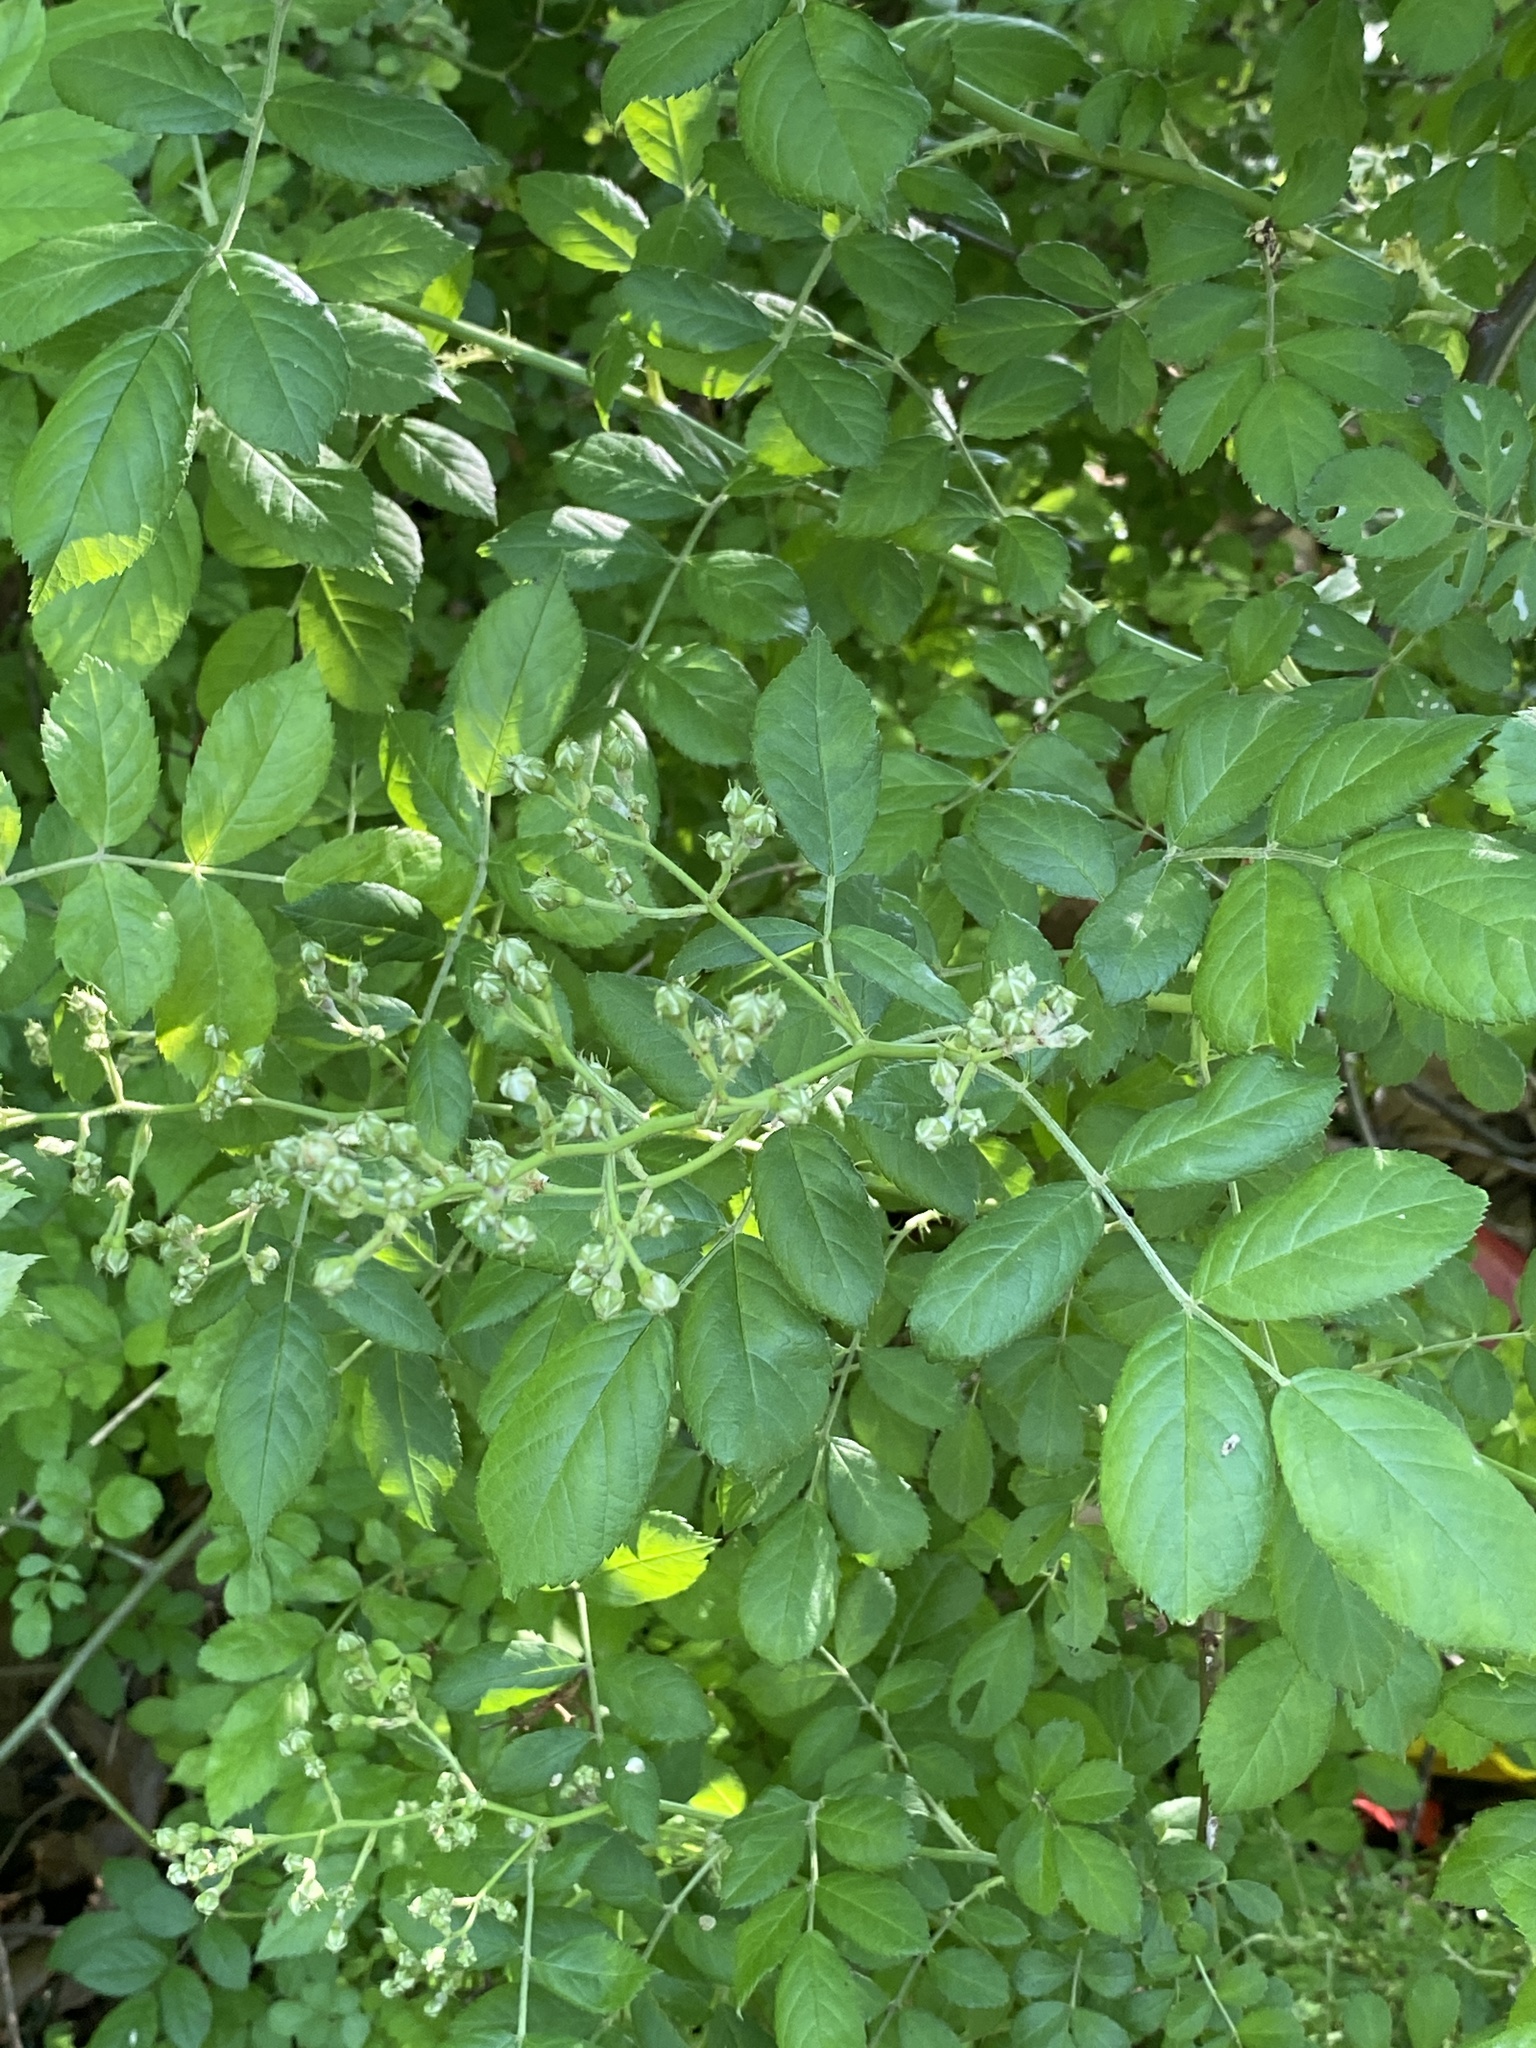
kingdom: Plantae
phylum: Tracheophyta
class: Magnoliopsida
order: Rosales
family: Rosaceae
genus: Rosa
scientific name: Rosa multiflora
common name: Multiflora rose
